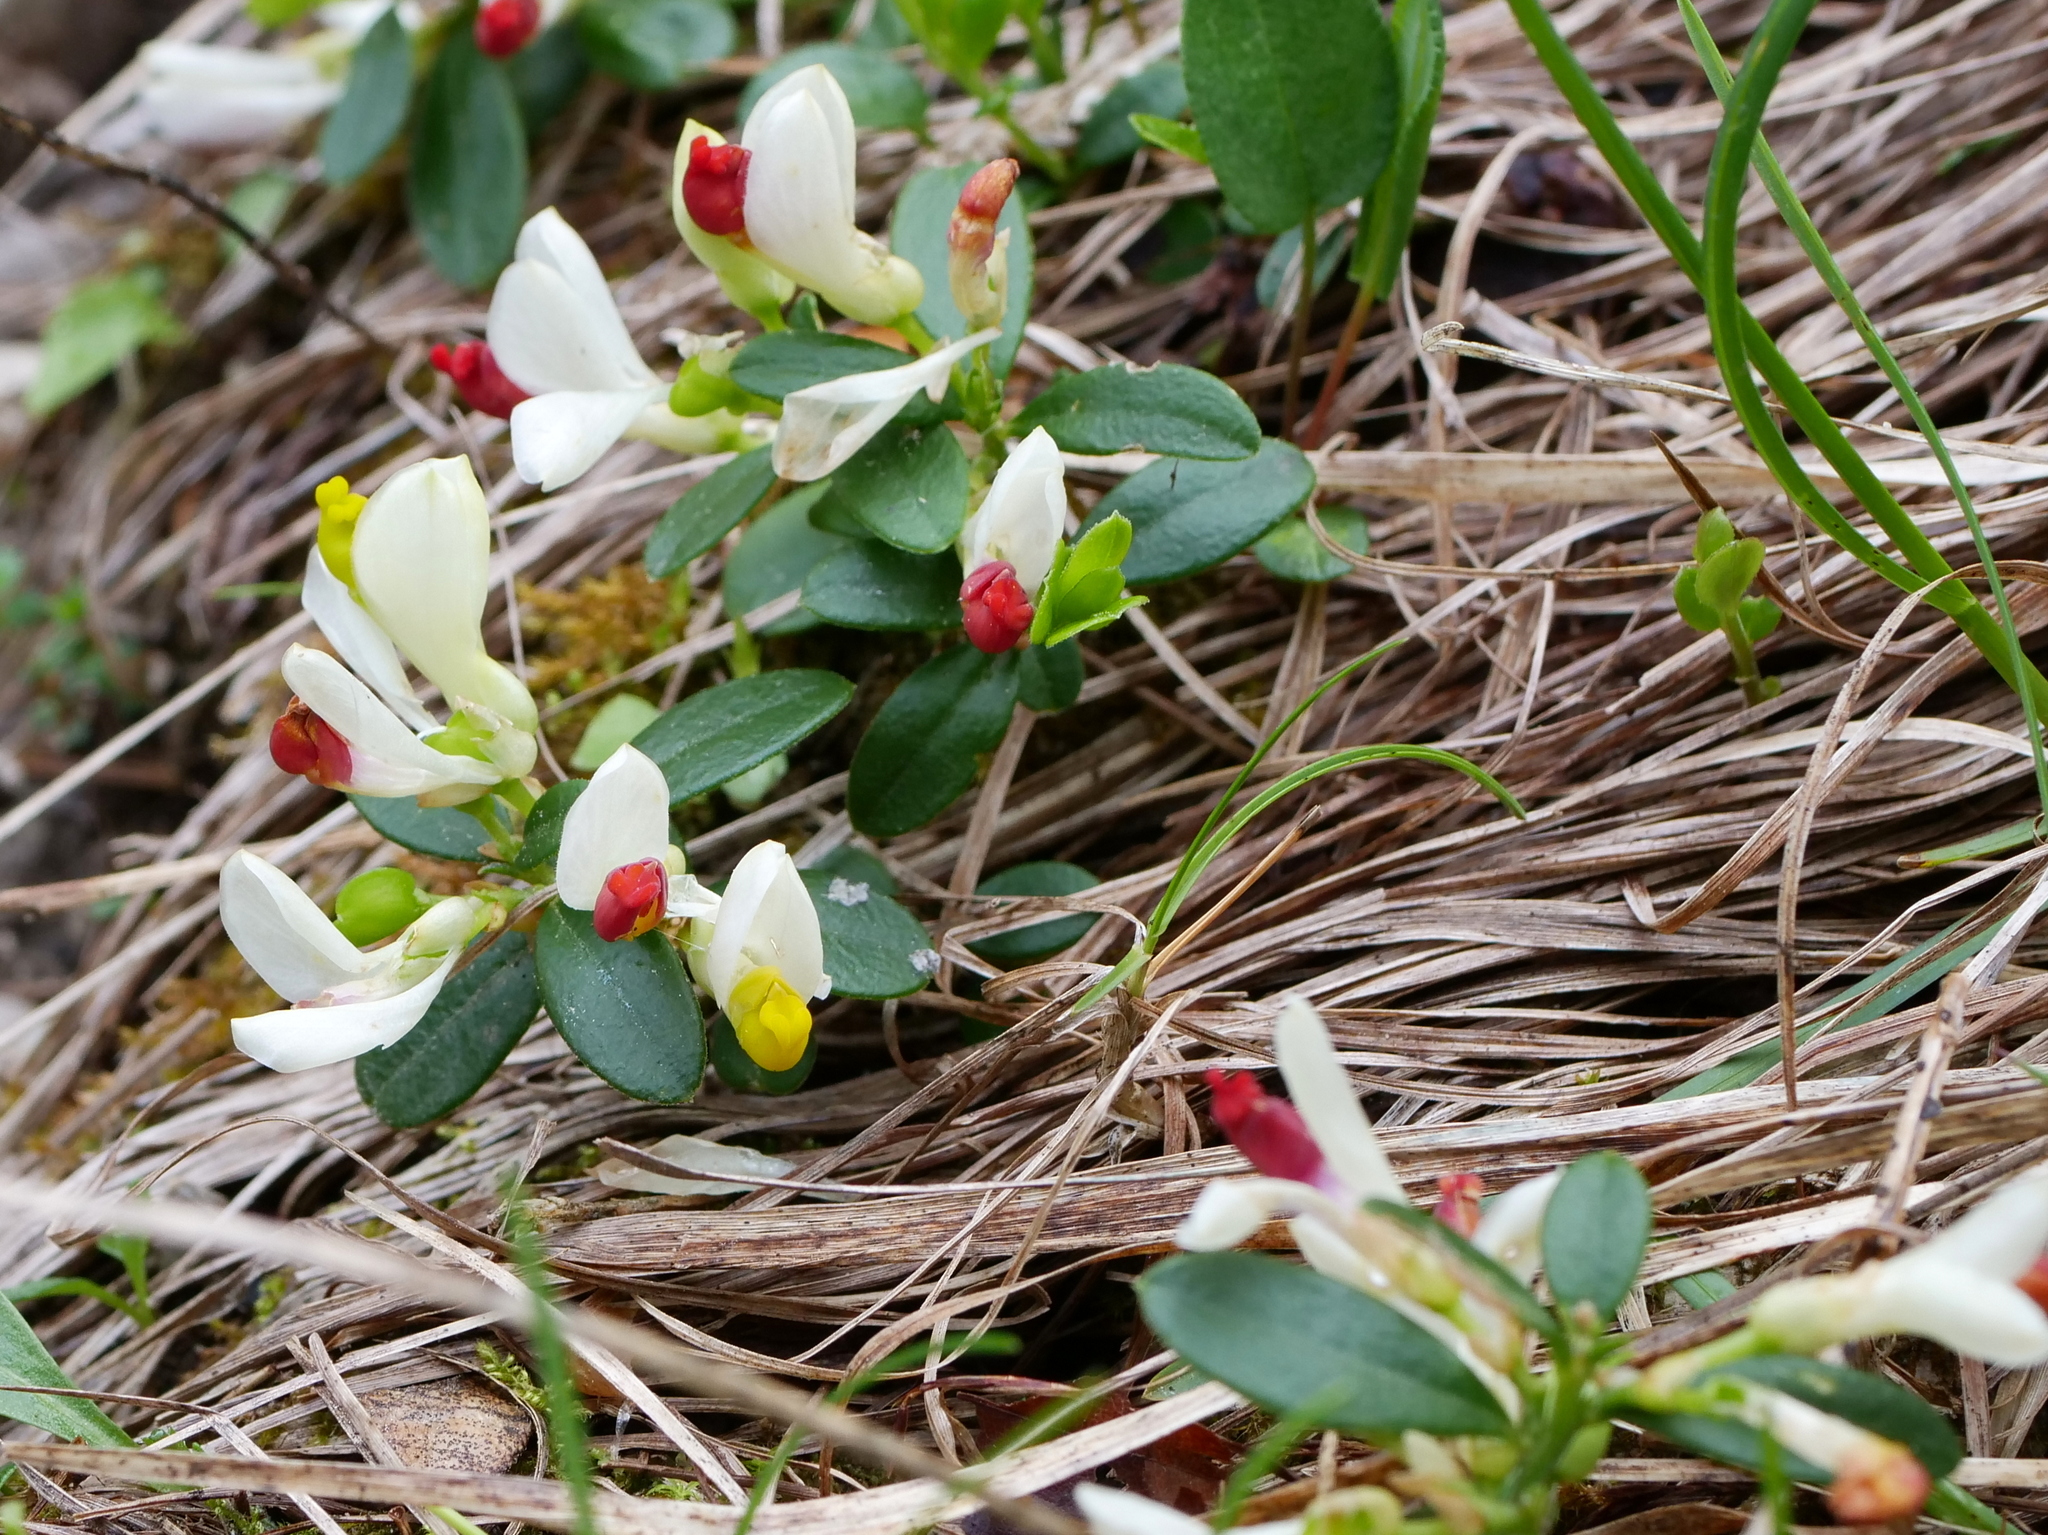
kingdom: Plantae
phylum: Tracheophyta
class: Magnoliopsida
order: Fabales
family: Polygalaceae
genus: Polygaloides
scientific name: Polygaloides chamaebuxus
